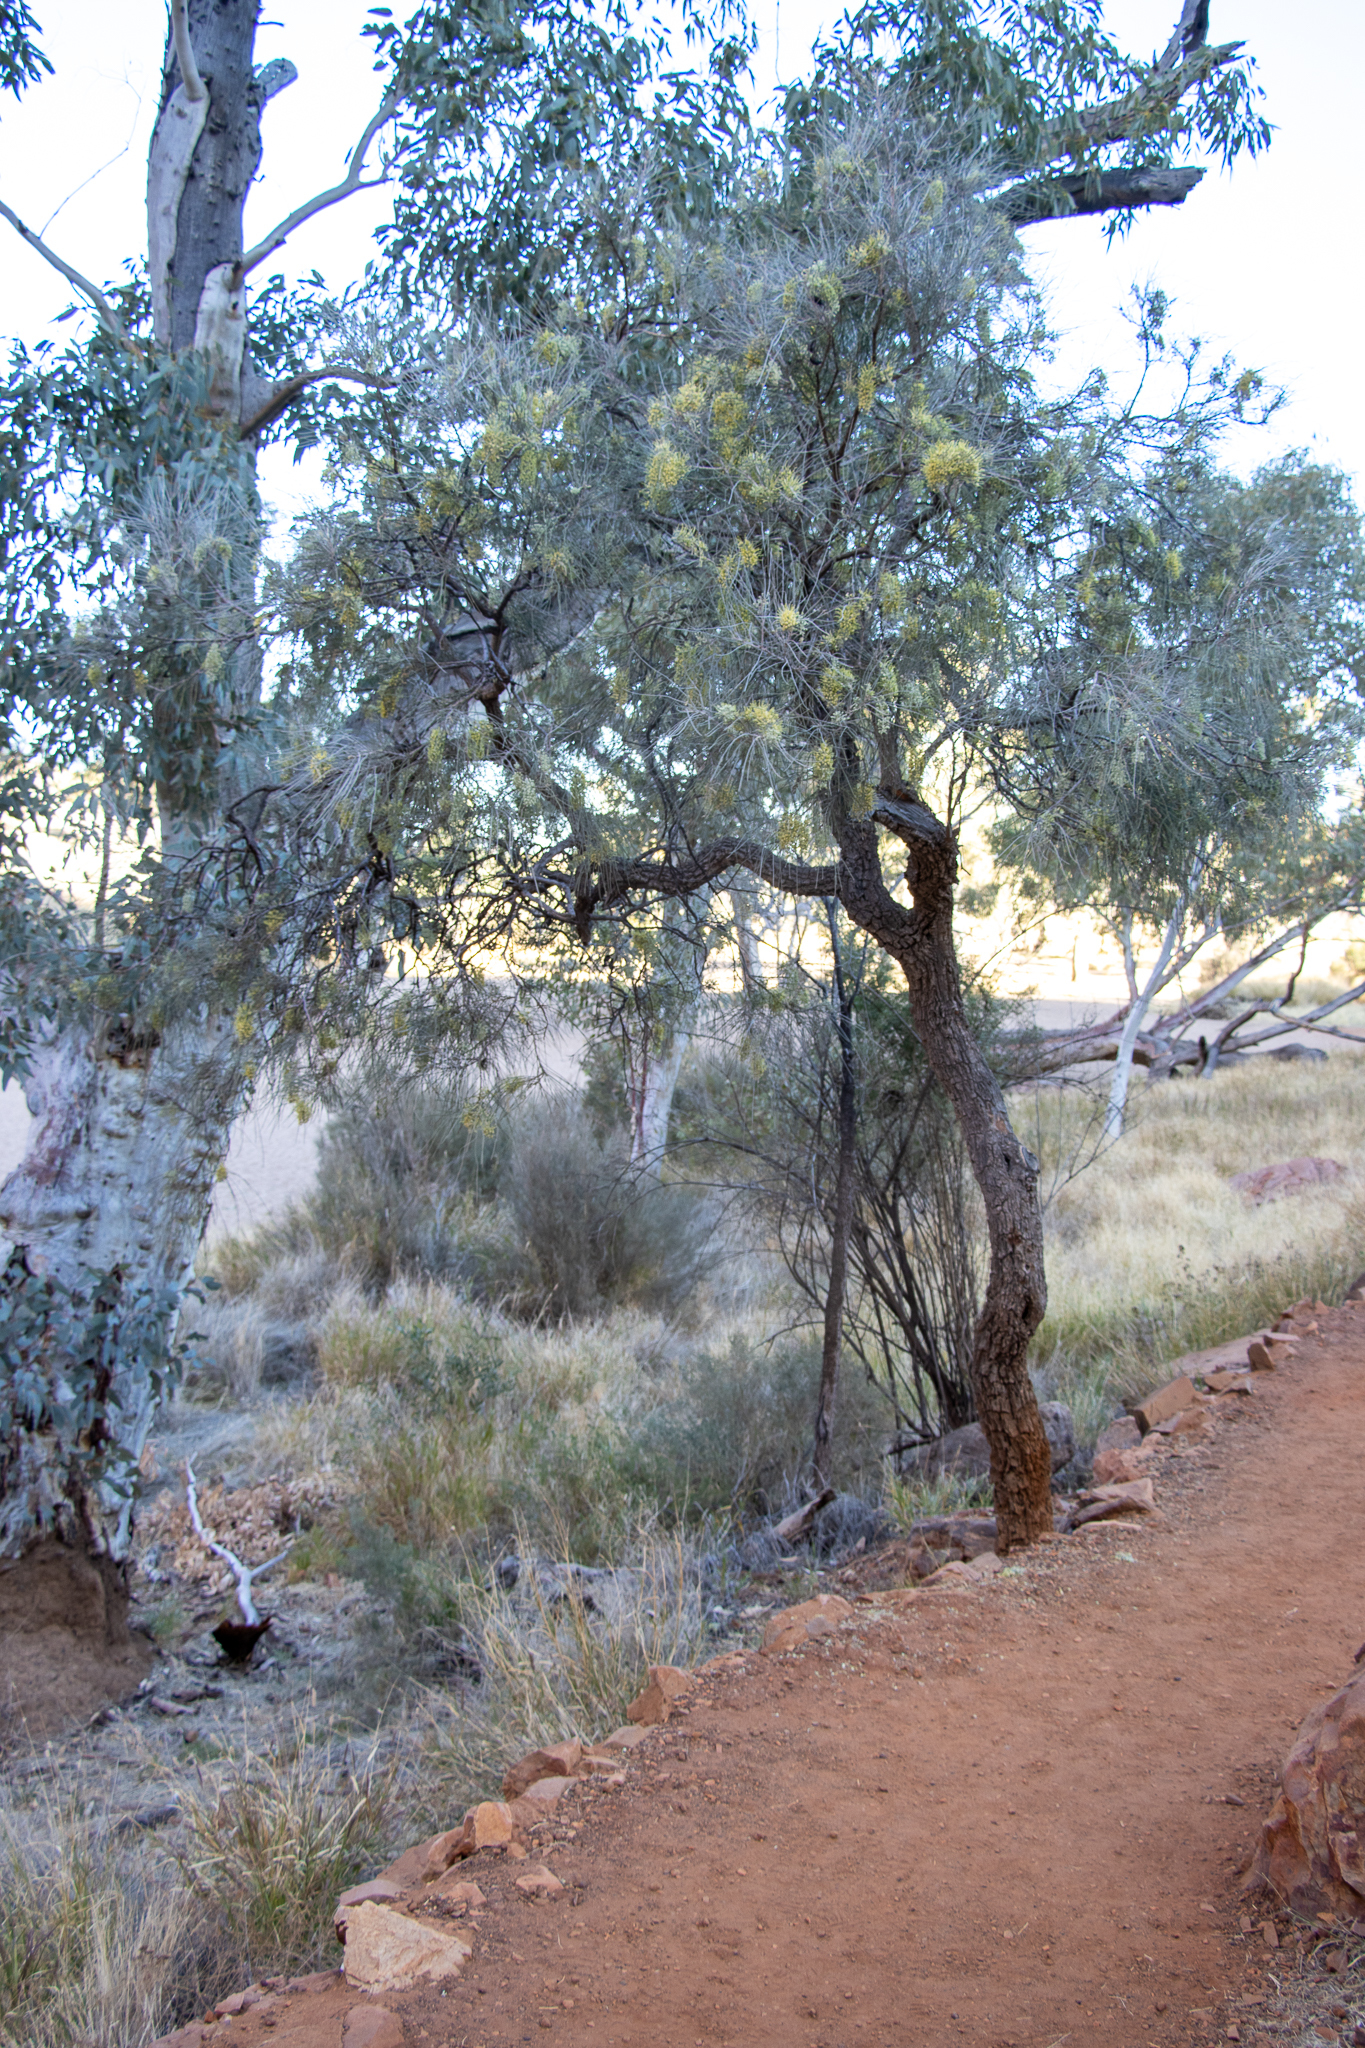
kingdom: Plantae
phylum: Tracheophyta
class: Magnoliopsida
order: Proteales
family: Proteaceae
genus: Hakea
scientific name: Hakea lorea
